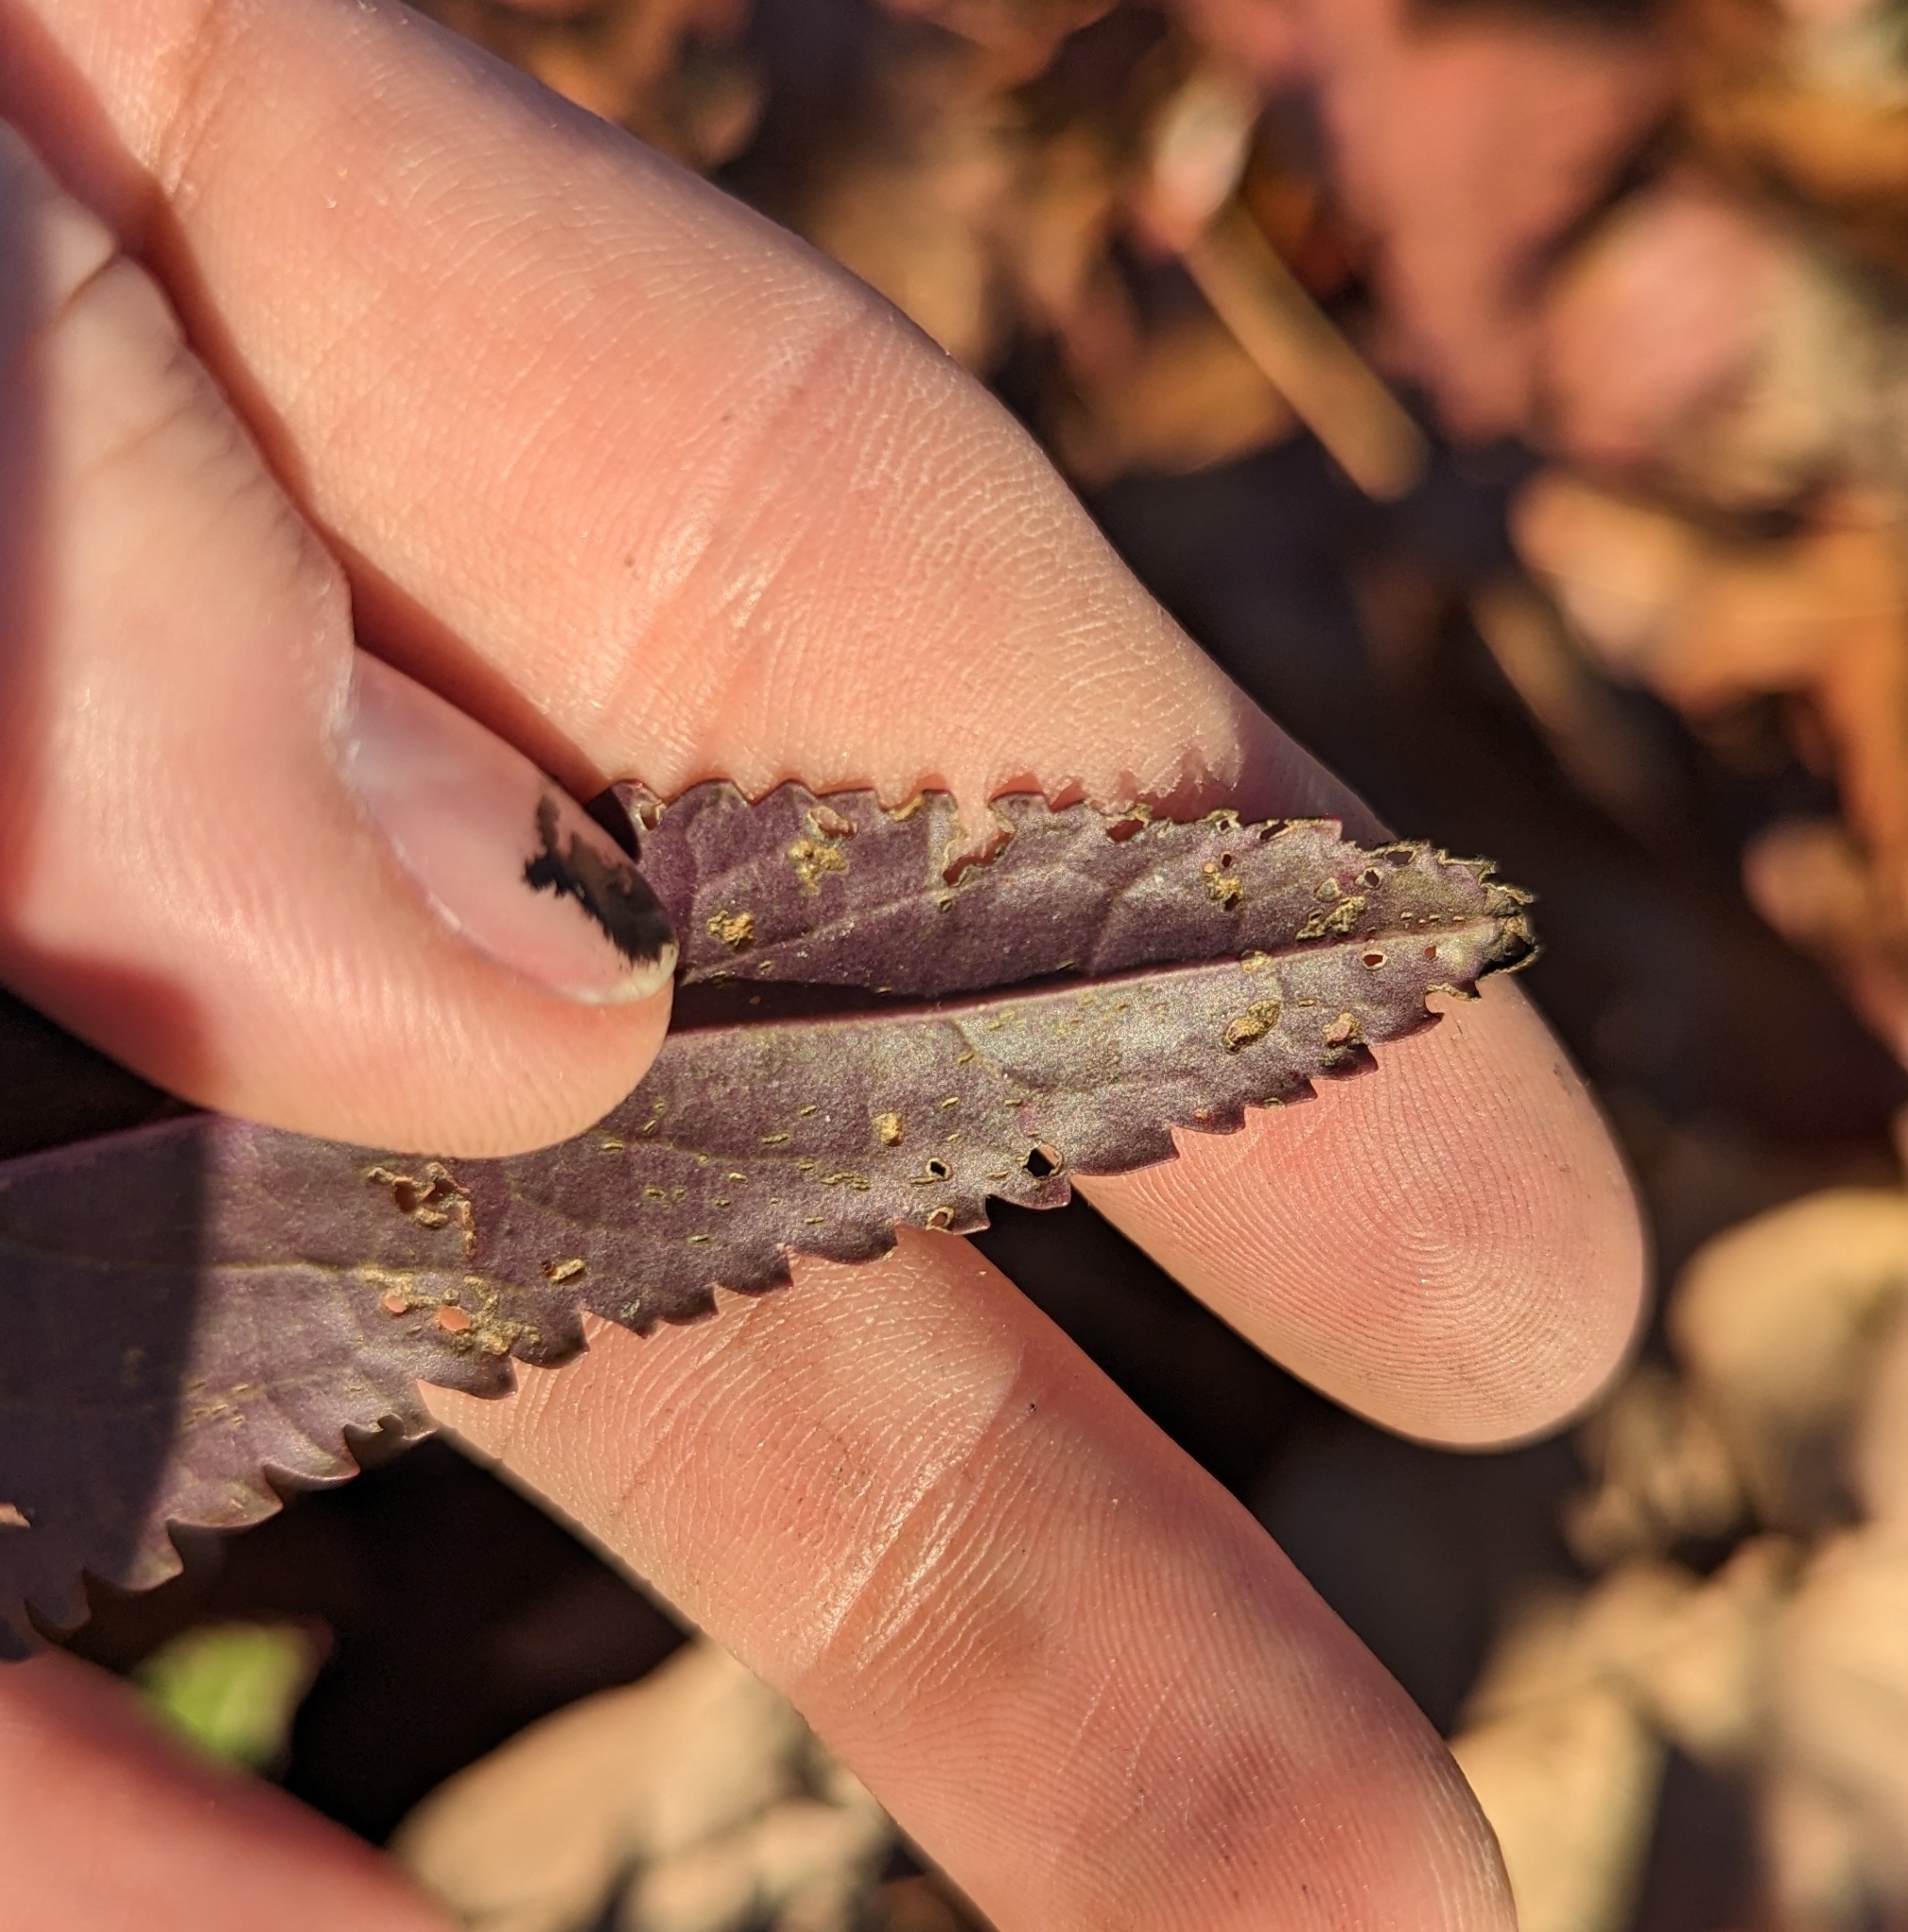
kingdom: Plantae
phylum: Tracheophyta
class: Magnoliopsida
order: Asterales
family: Asteraceae
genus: Packera
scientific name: Packera anonyma
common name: Small ragwort
